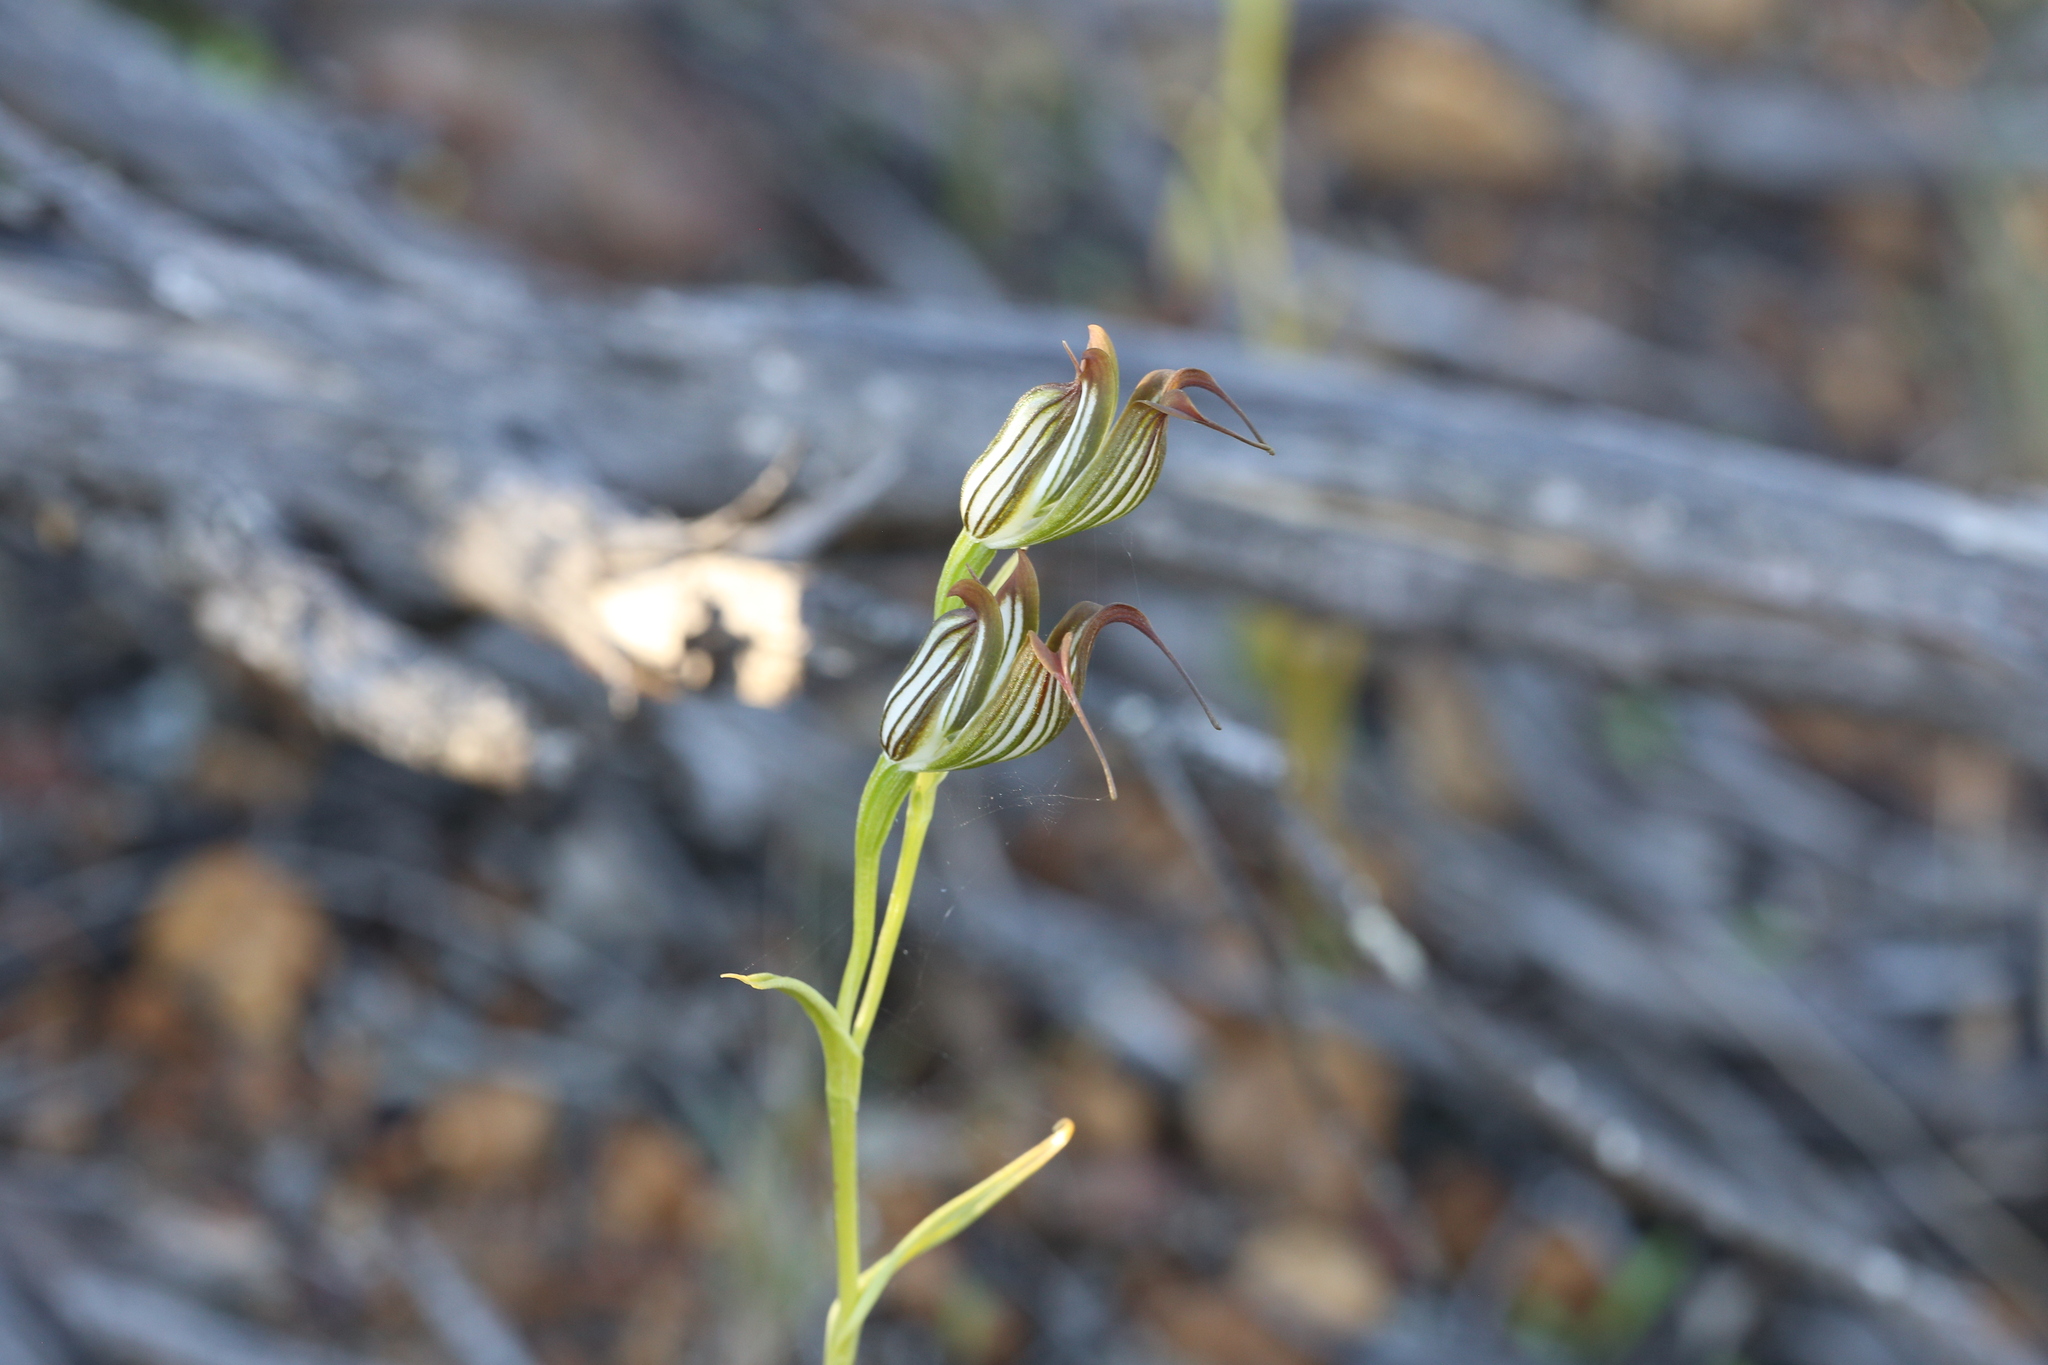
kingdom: Plantae
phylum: Tracheophyta
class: Liliopsida
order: Asparagales
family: Orchidaceae
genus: Pterostylis
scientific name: Pterostylis recurva
